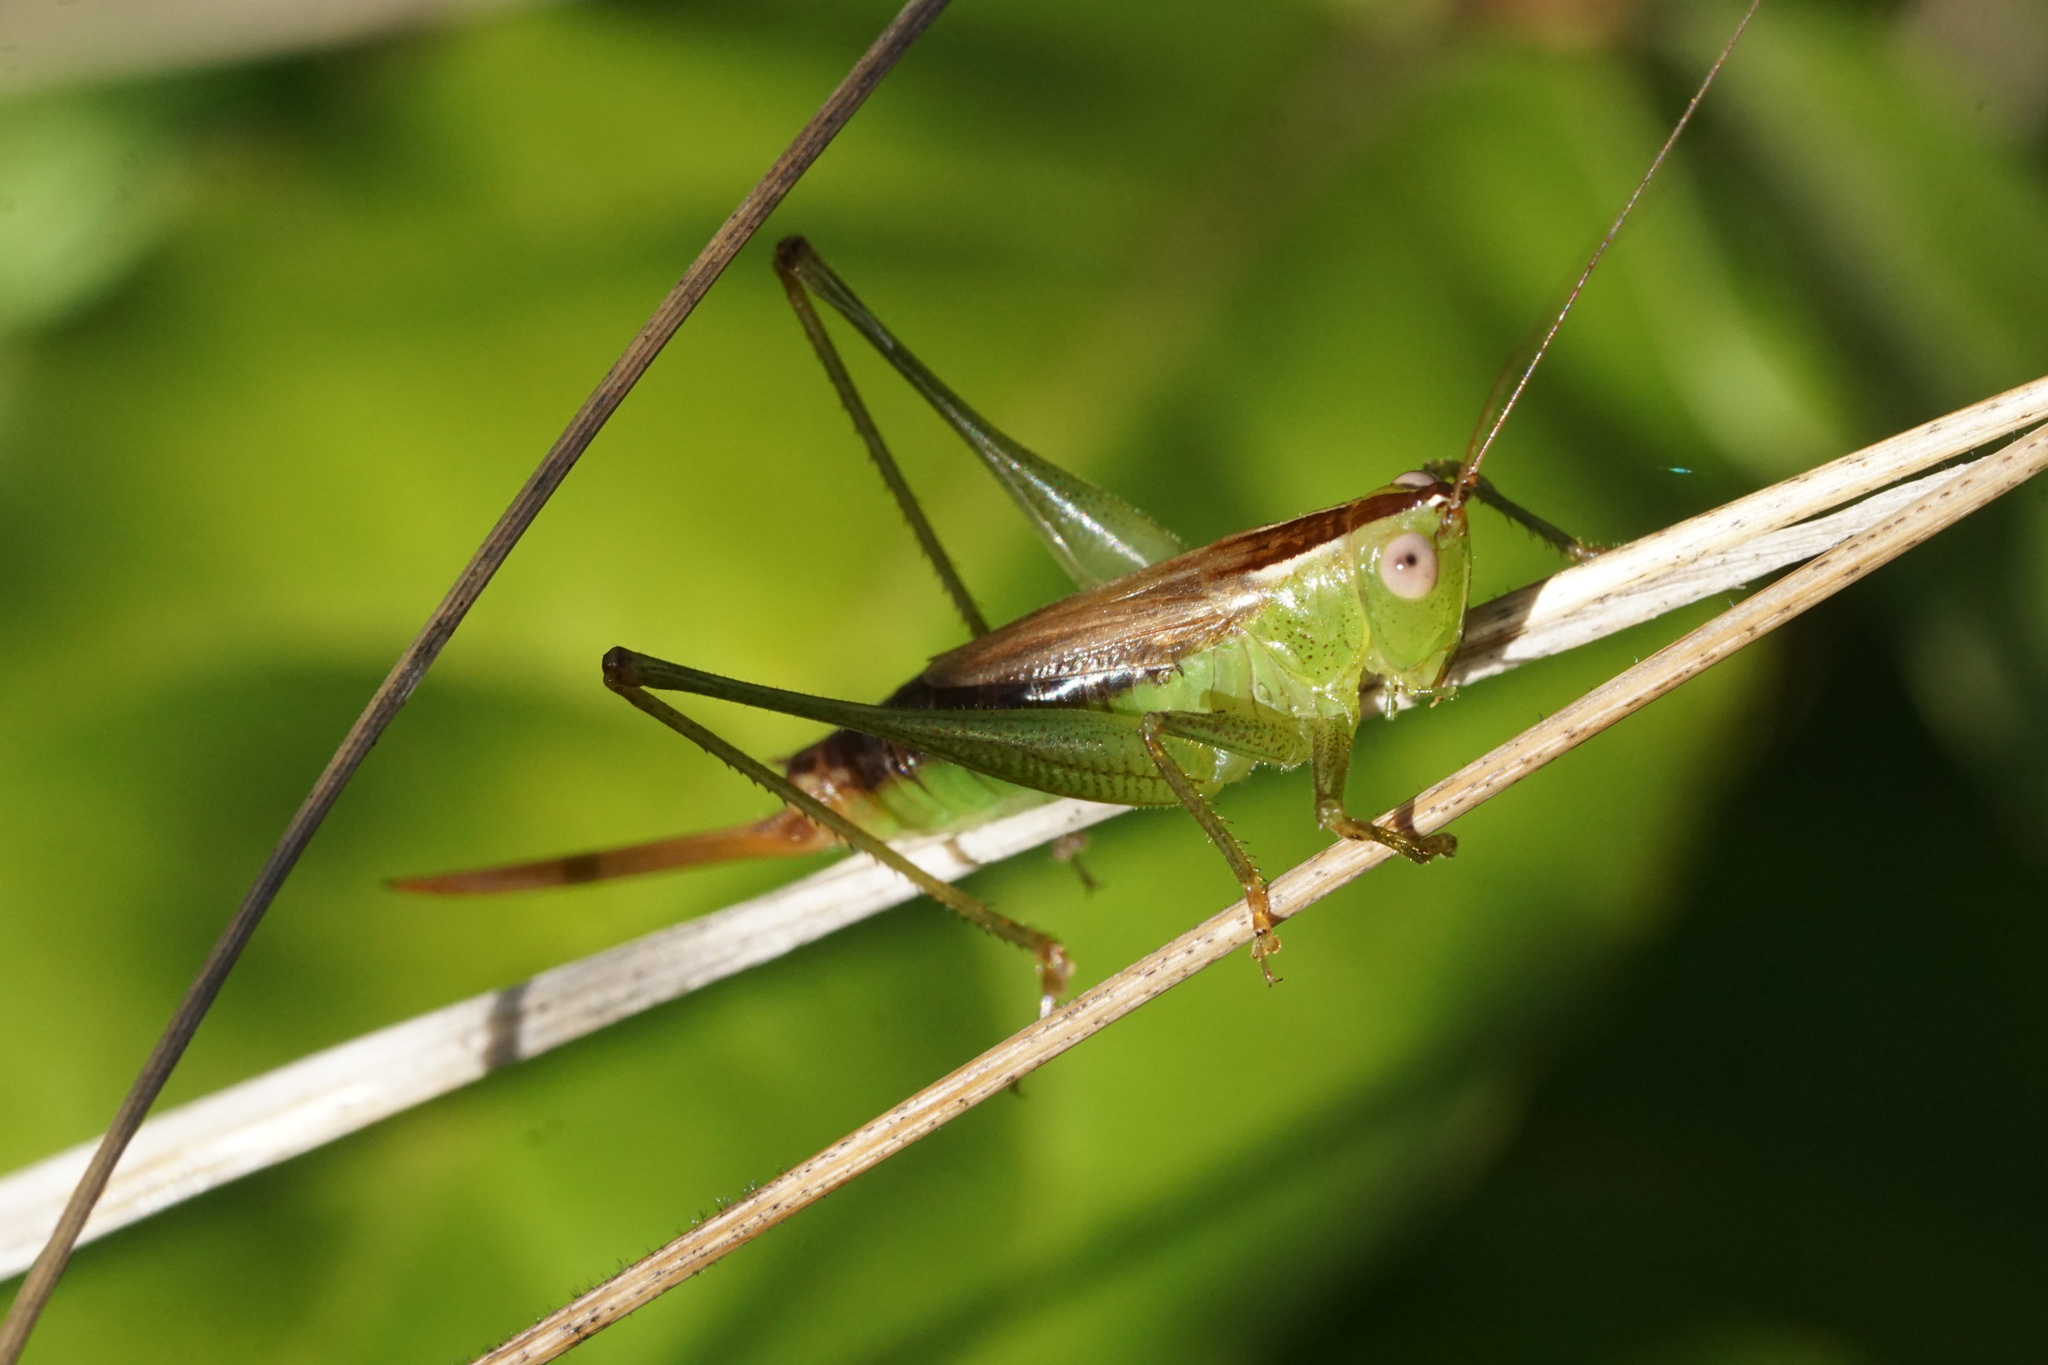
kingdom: Animalia
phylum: Arthropoda
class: Insecta
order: Orthoptera
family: Tettigoniidae
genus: Conocephalus
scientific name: Conocephalus brevipennis
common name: Short-winged meadow katydid
